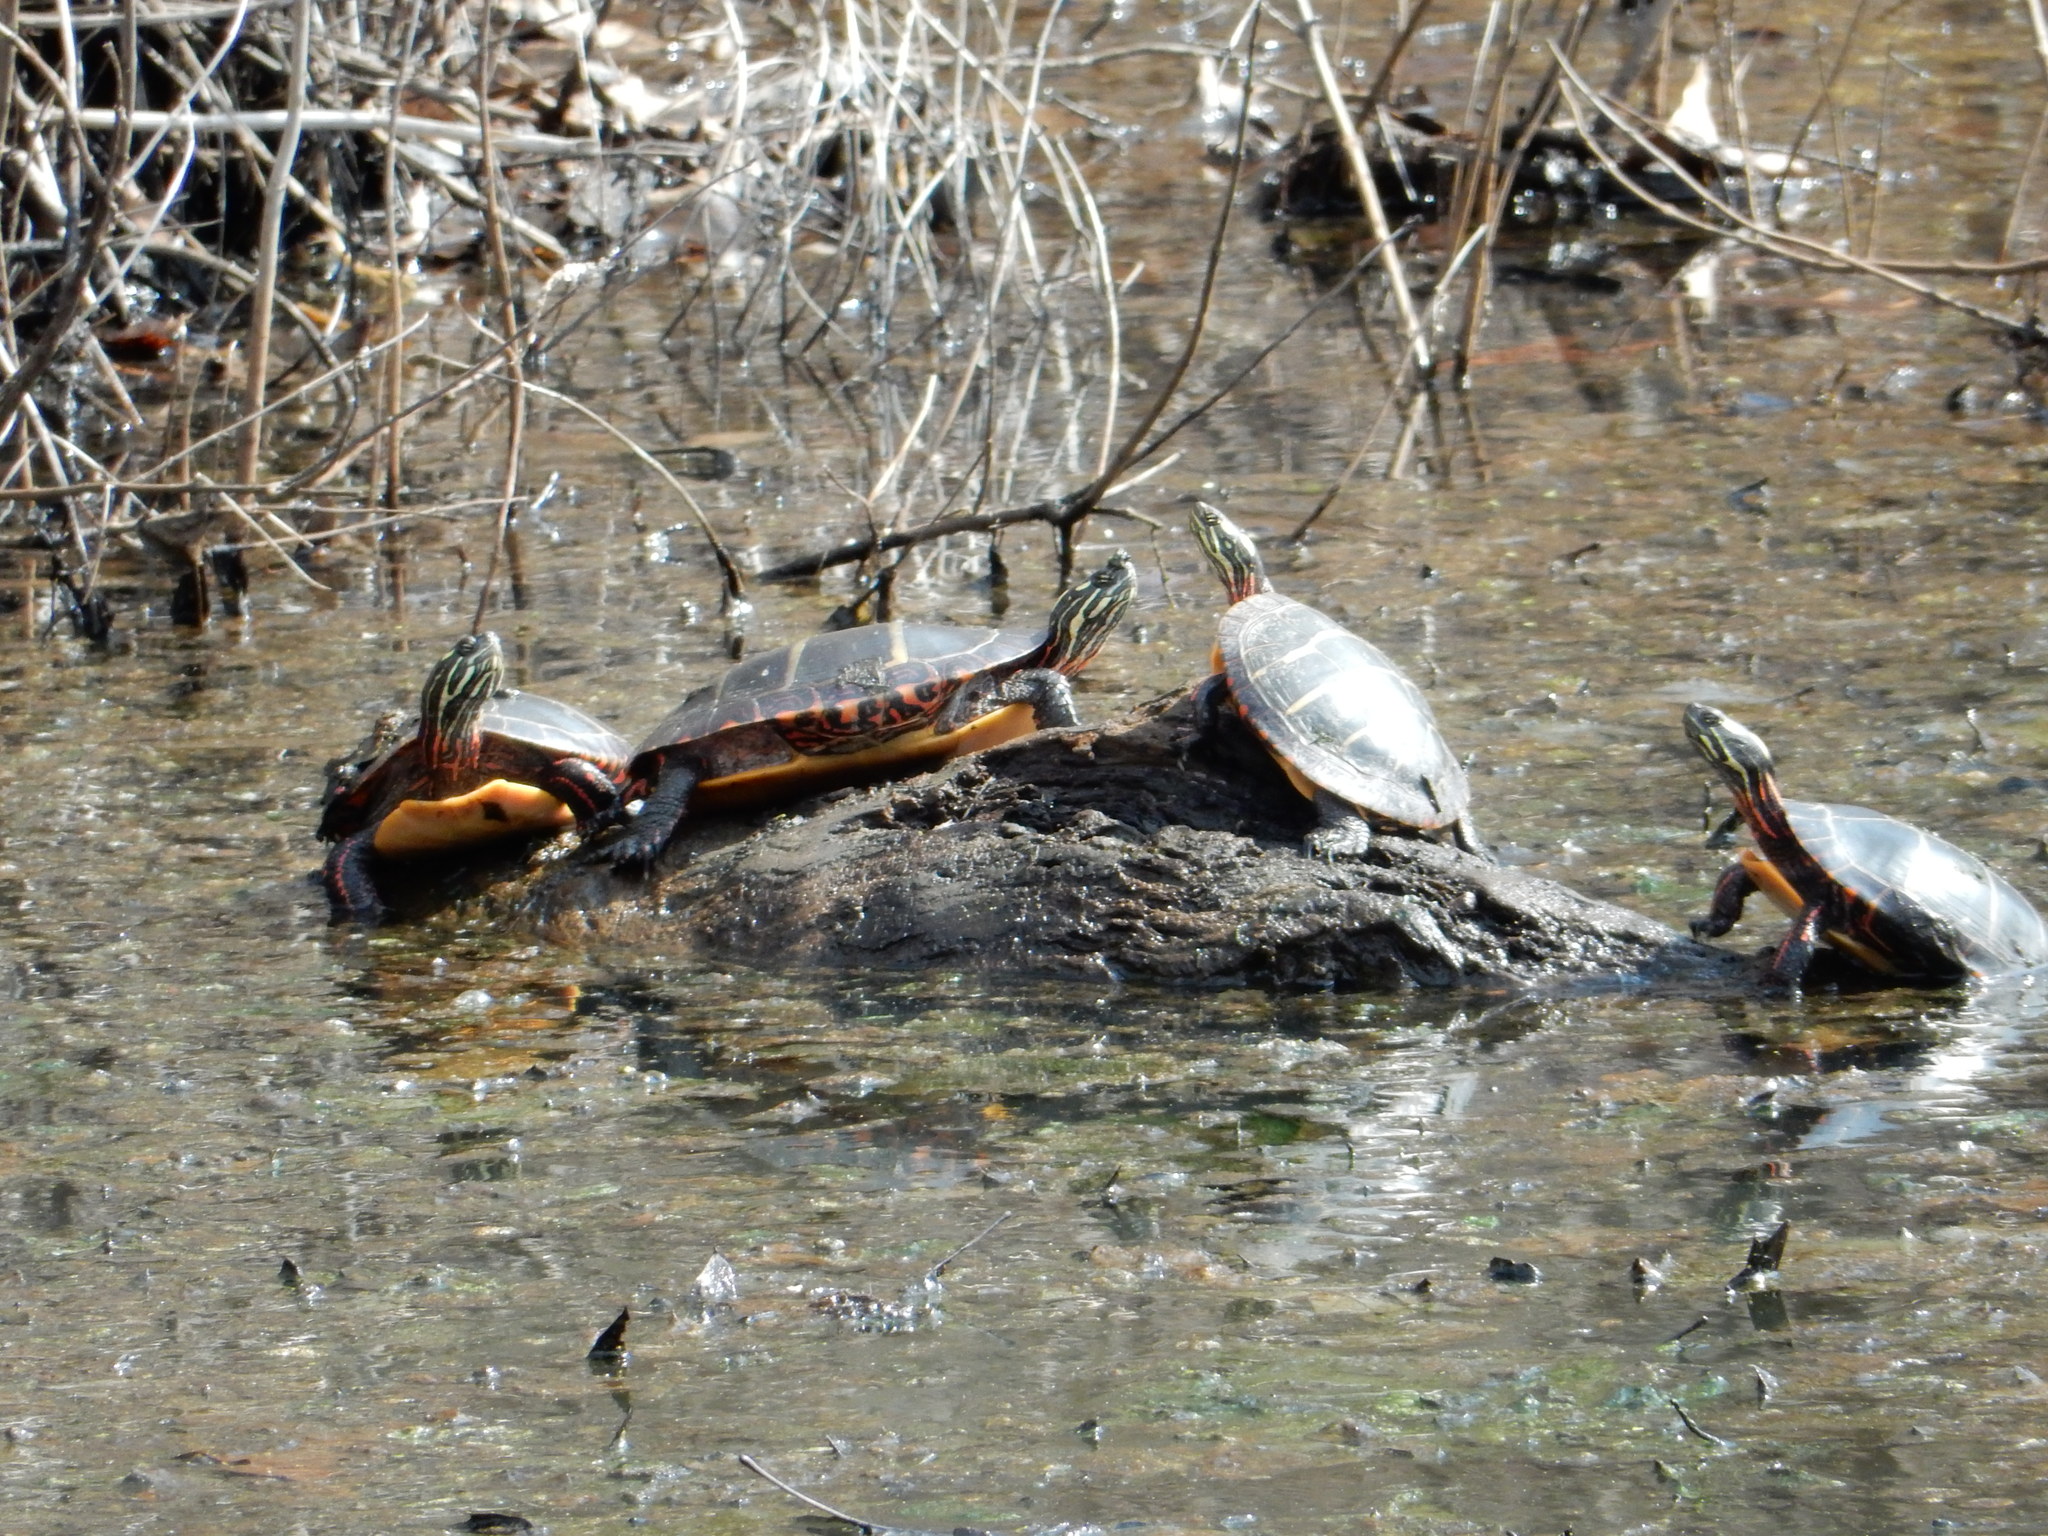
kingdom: Animalia
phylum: Chordata
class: Testudines
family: Emydidae
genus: Chrysemys
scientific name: Chrysemys picta
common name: Painted turtle
